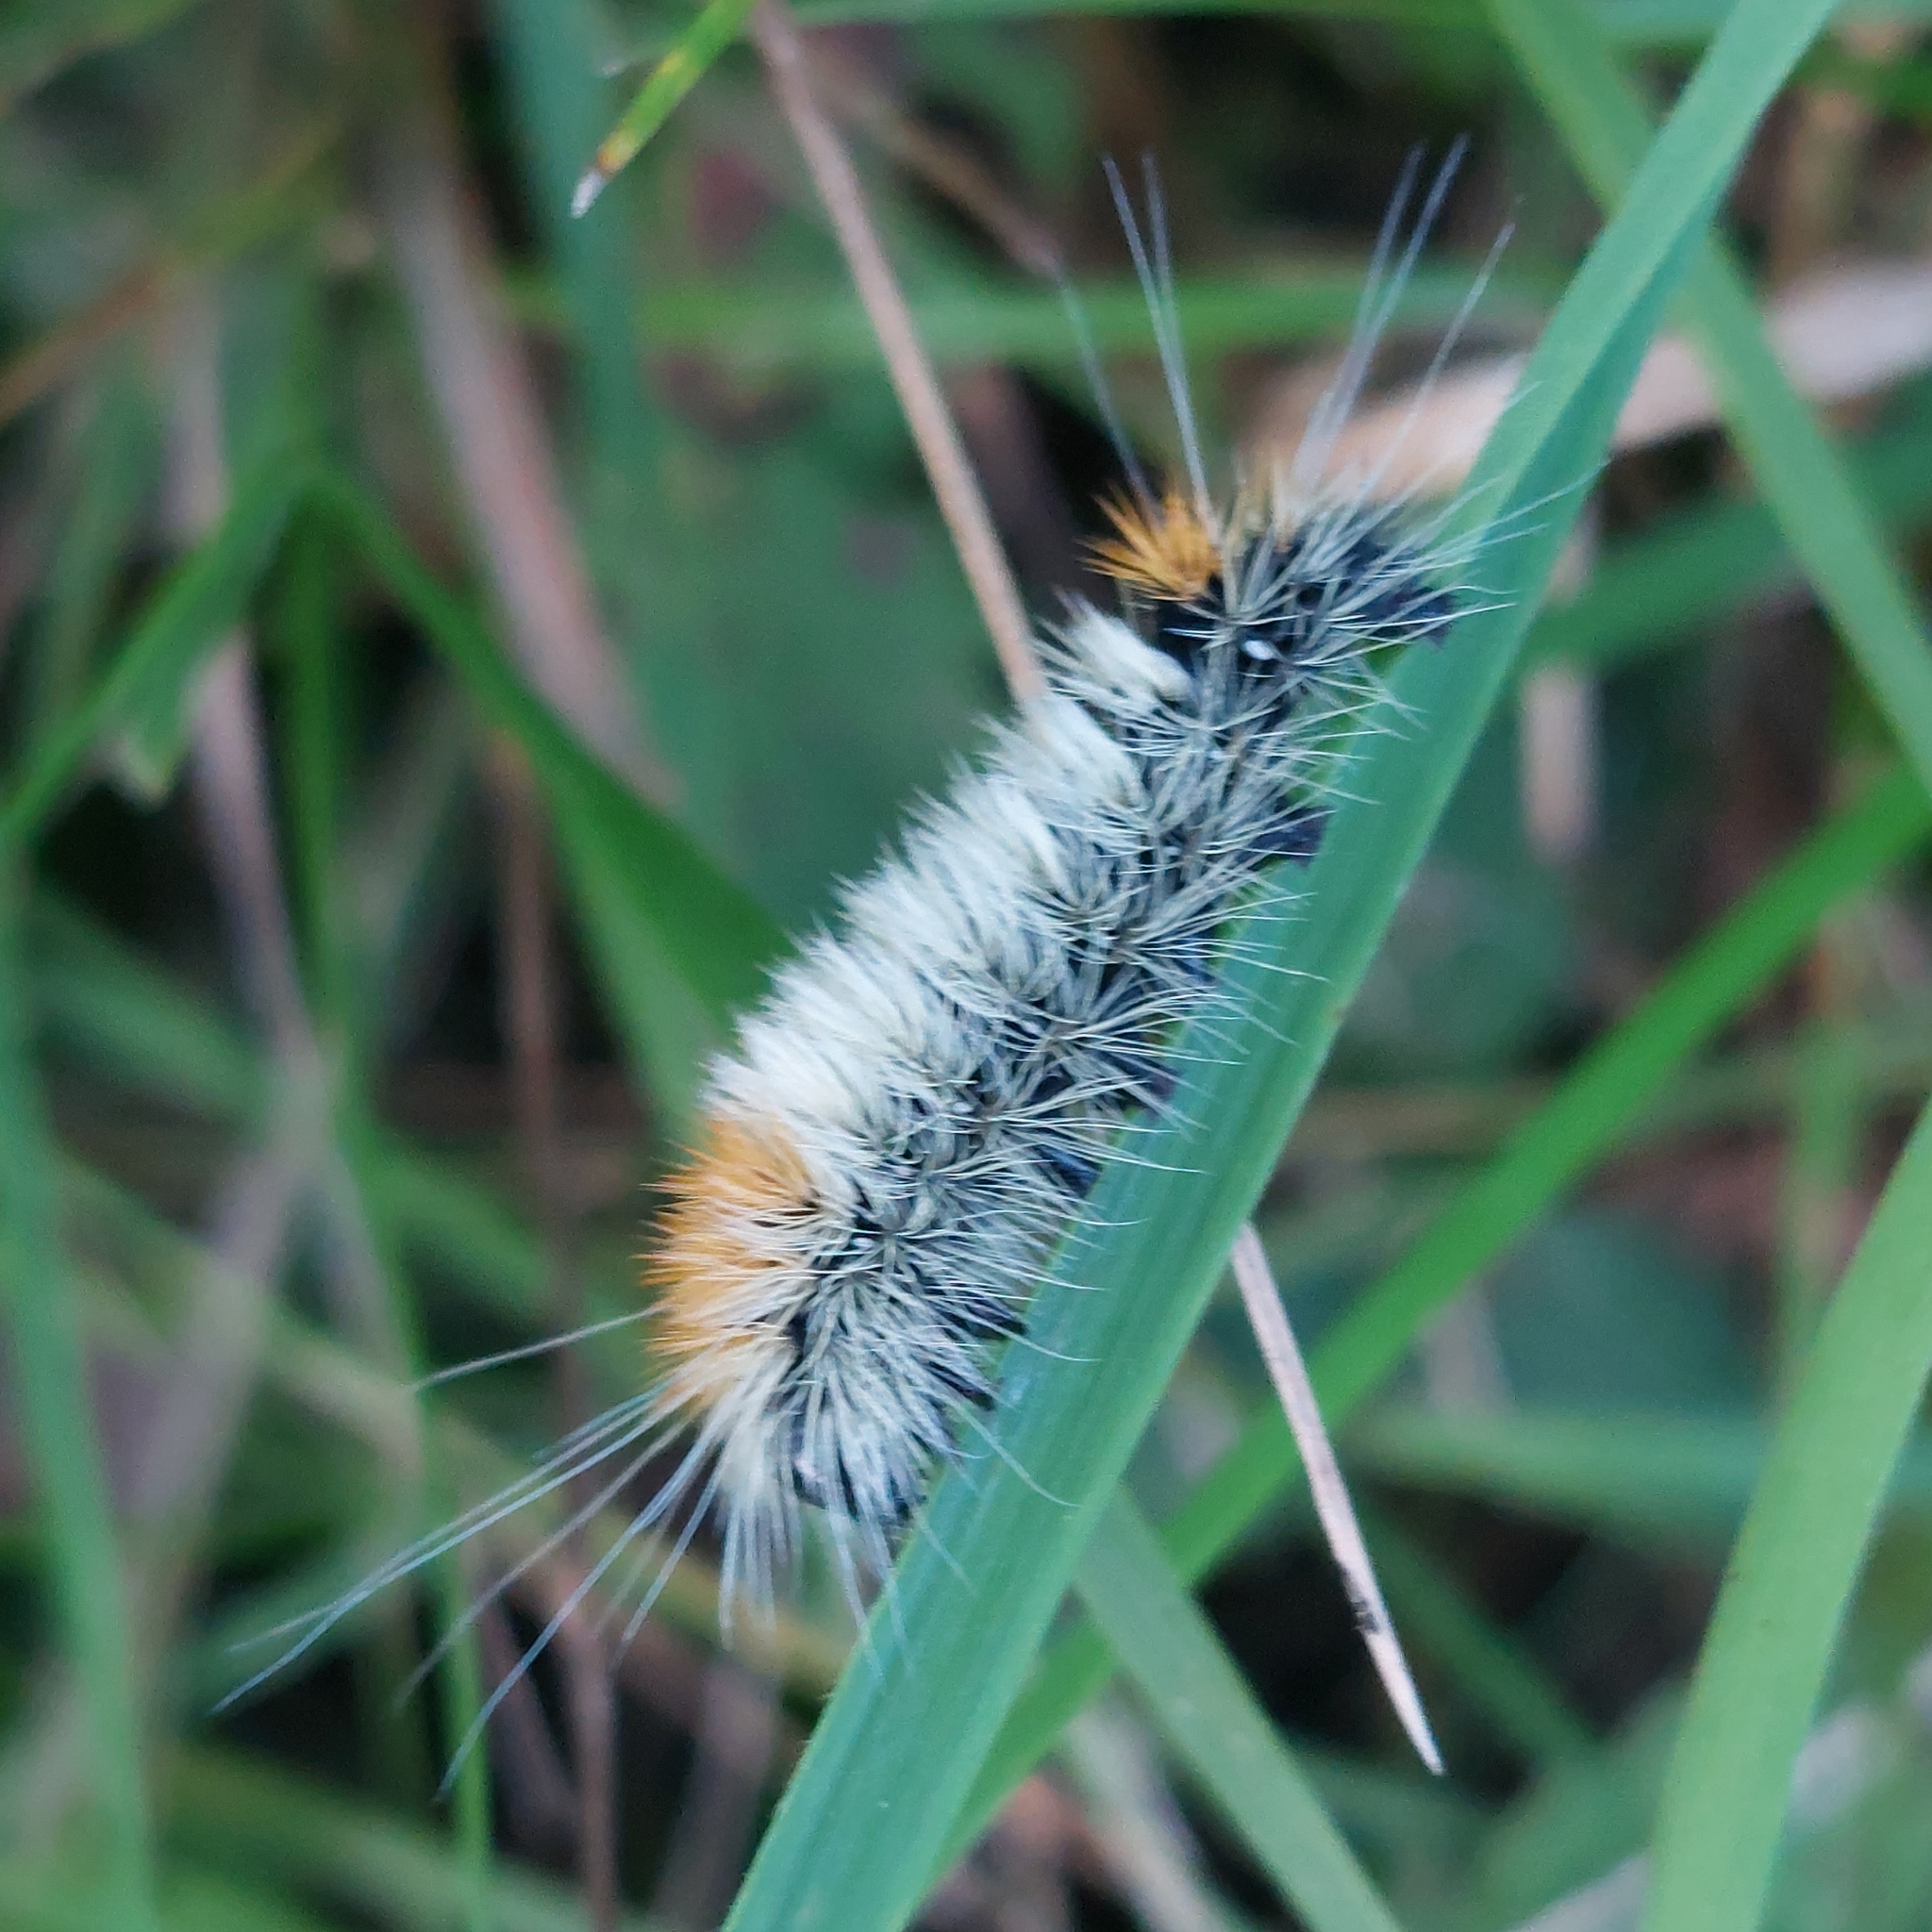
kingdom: Animalia
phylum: Arthropoda
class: Insecta
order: Lepidoptera
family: Noctuidae
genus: Acronicta
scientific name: Acronicta impressa
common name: Impressed dagger
